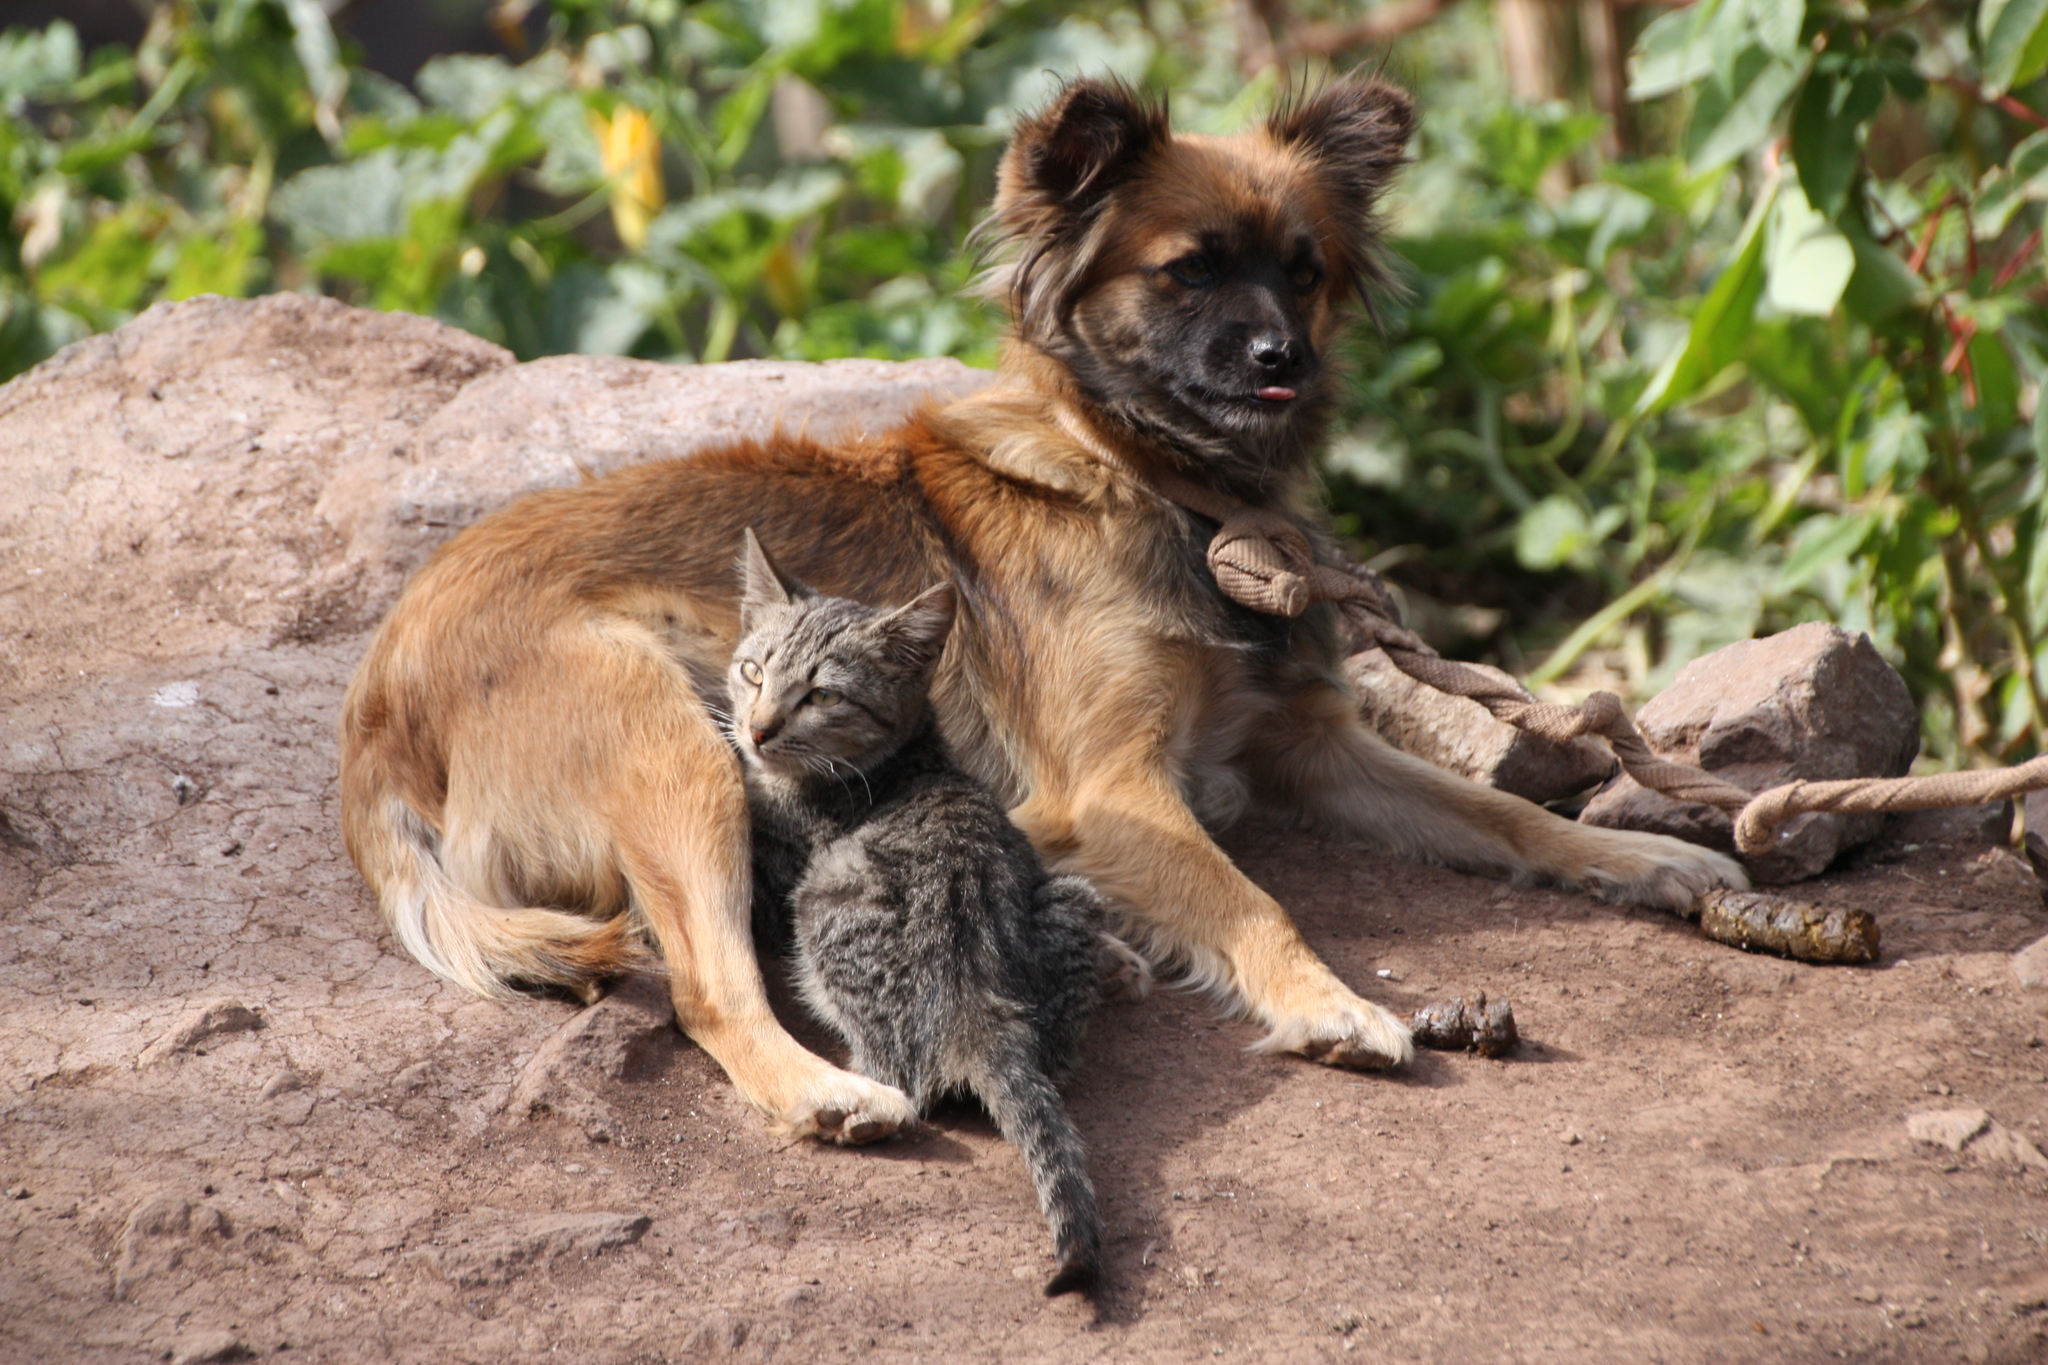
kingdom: Animalia
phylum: Chordata
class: Mammalia
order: Carnivora
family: Felidae
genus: Felis
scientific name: Felis catus
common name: Domestic cat
